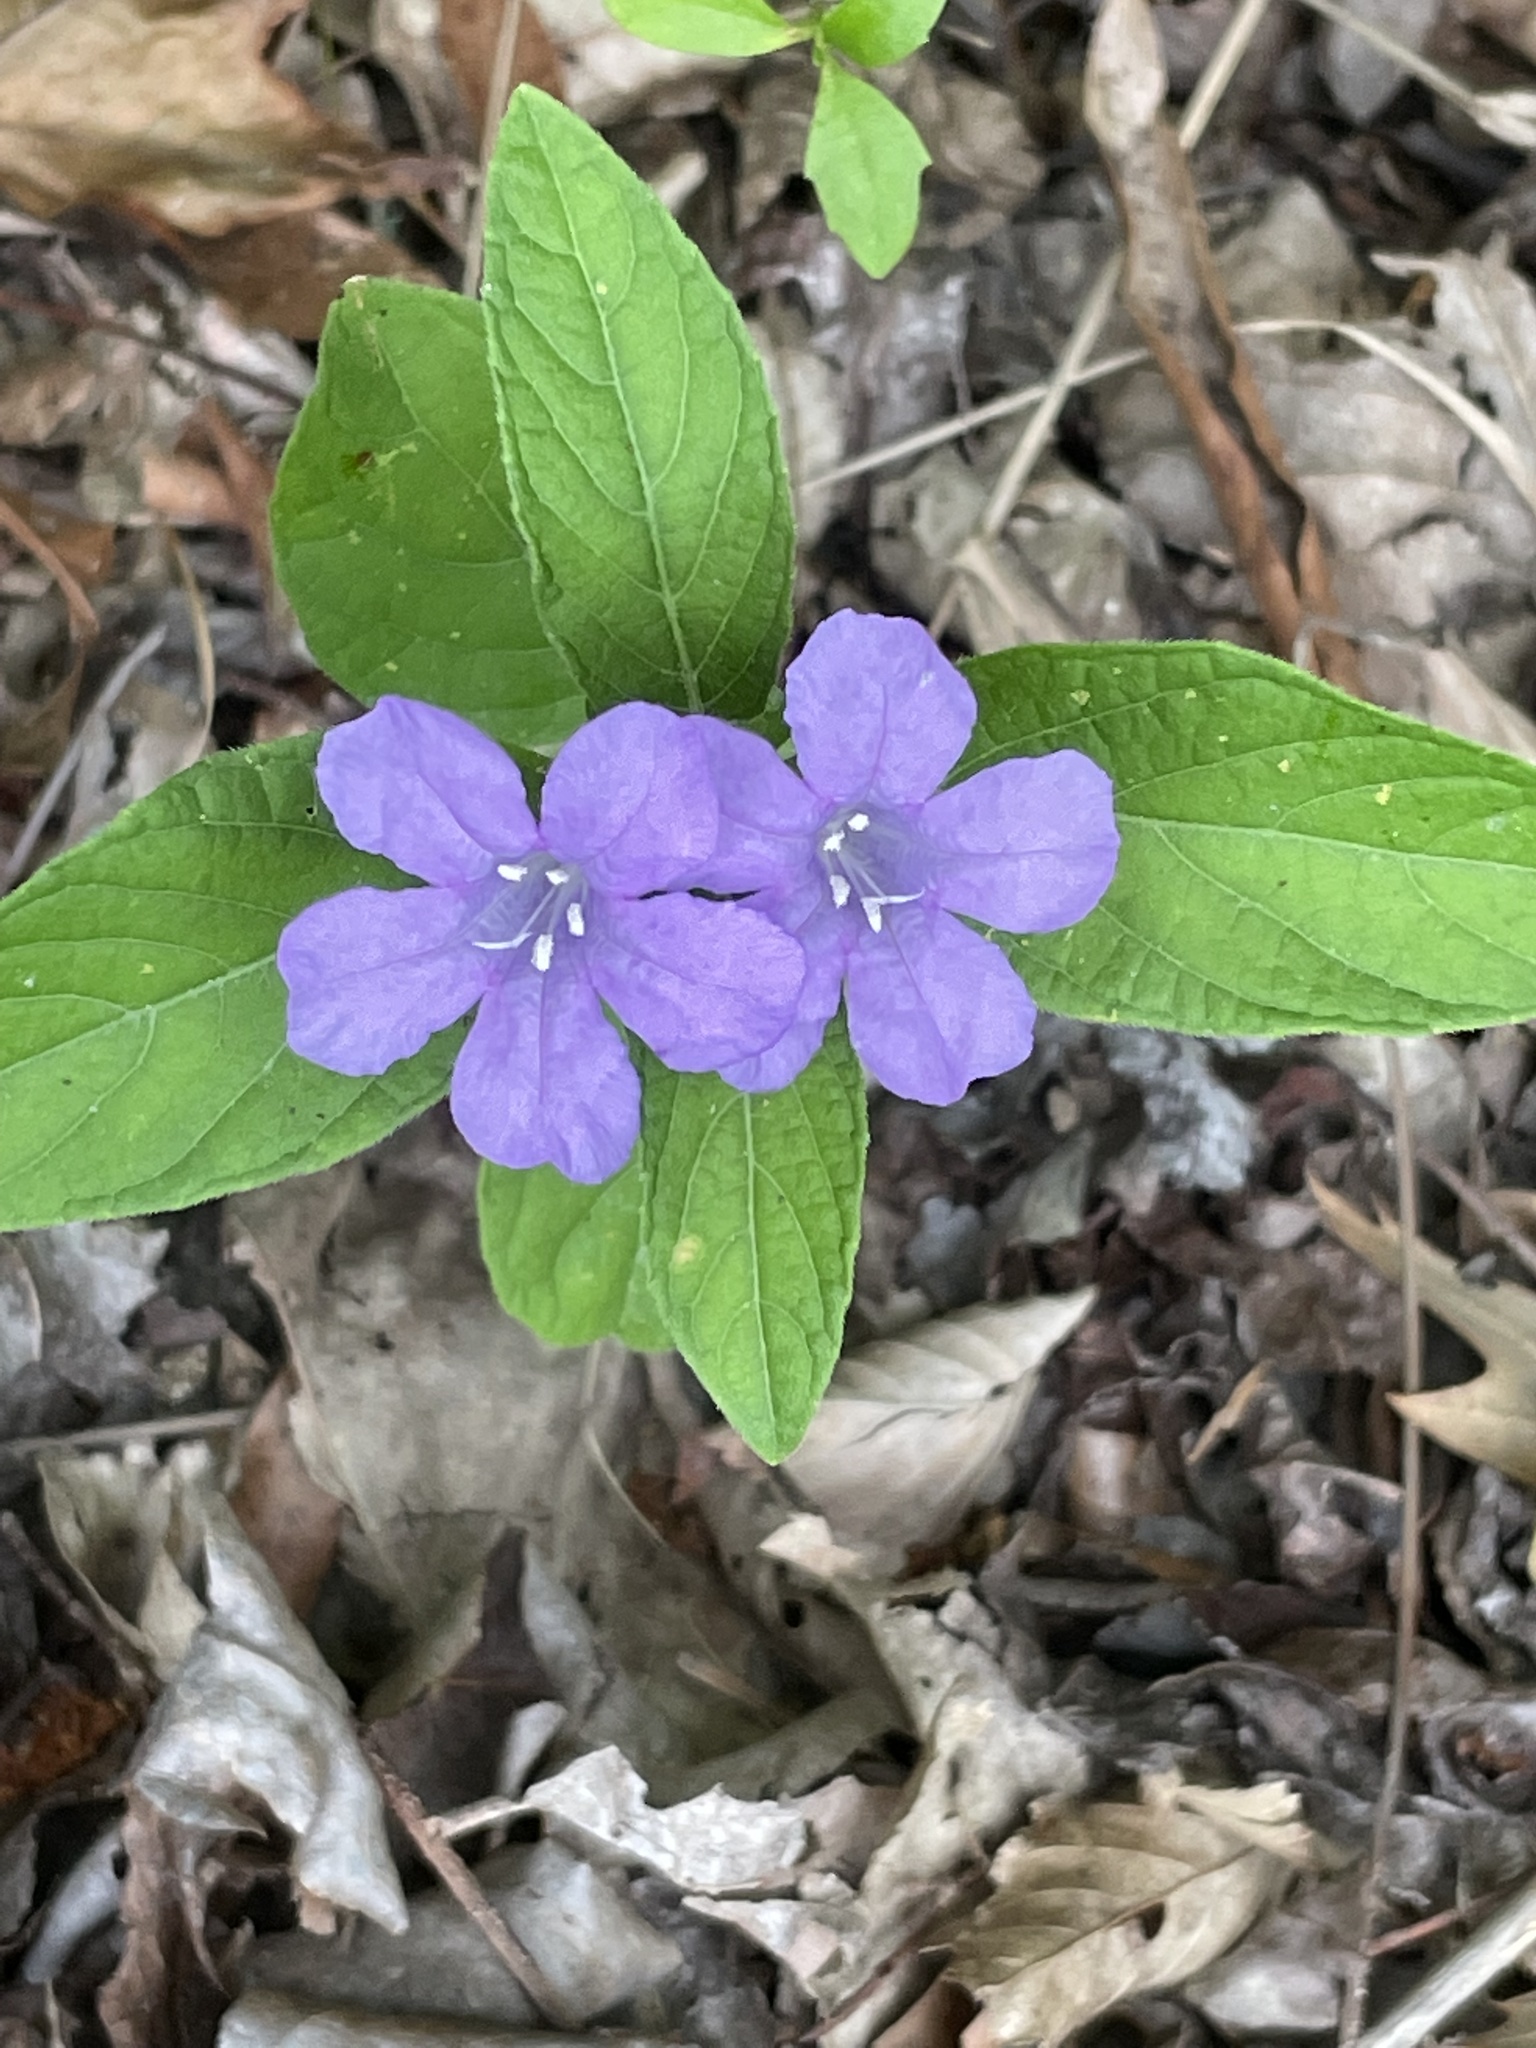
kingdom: Plantae
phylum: Tracheophyta
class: Magnoliopsida
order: Lamiales
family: Acanthaceae
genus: Ruellia
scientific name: Ruellia caroliniensis
